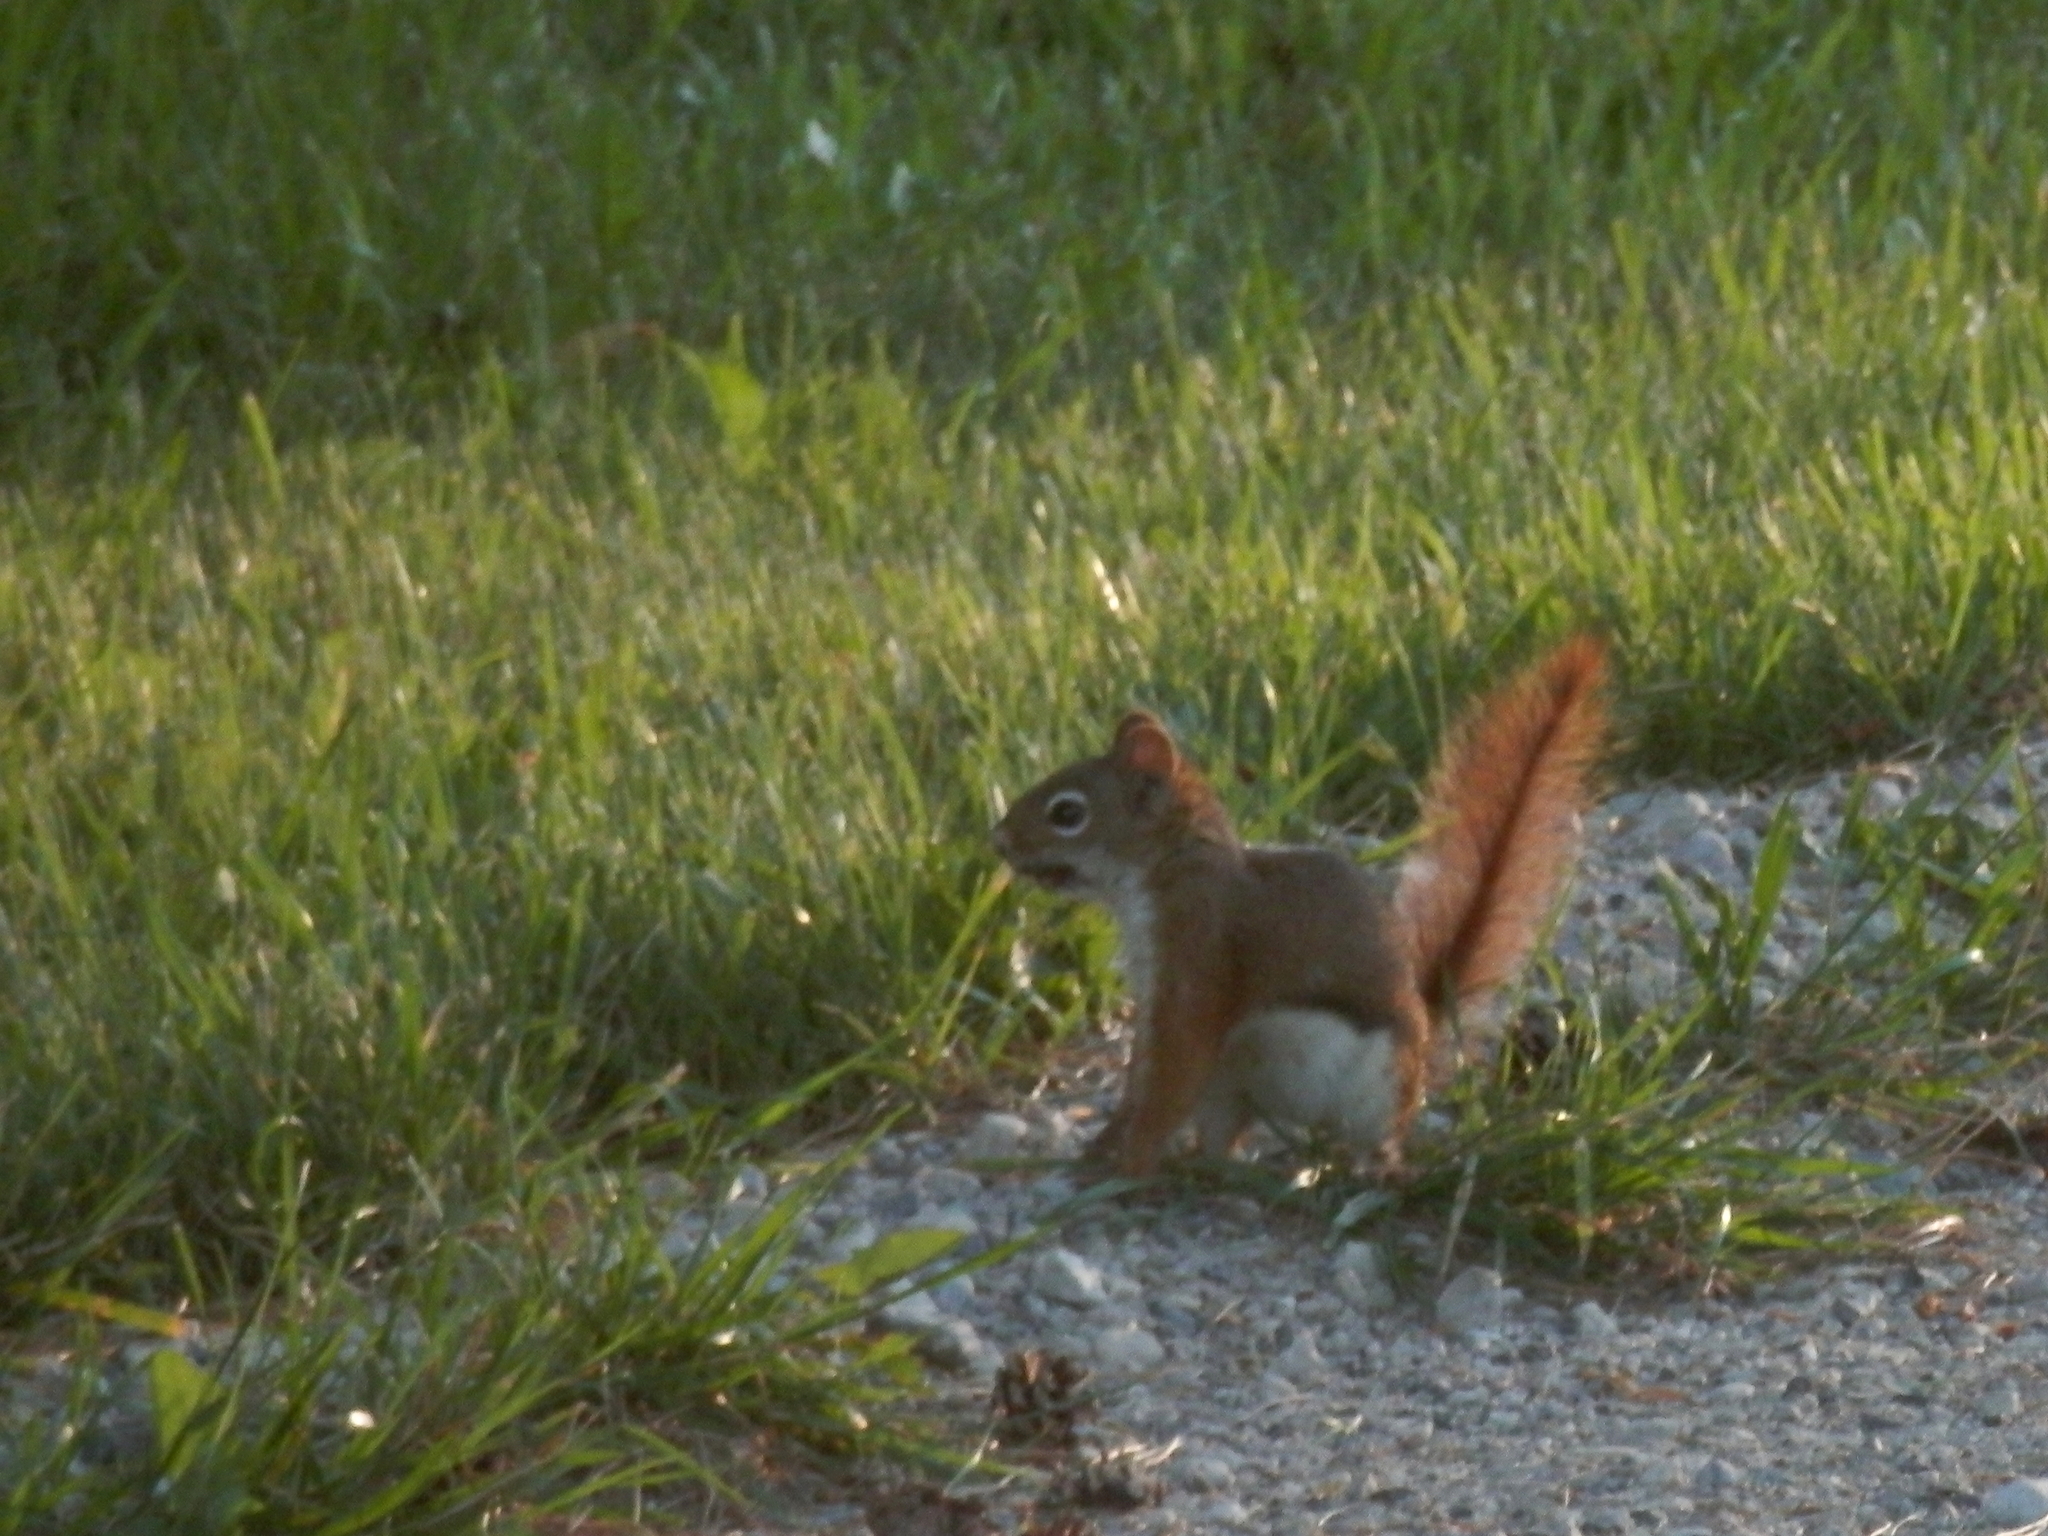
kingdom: Animalia
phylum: Chordata
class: Mammalia
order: Rodentia
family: Sciuridae
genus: Tamiasciurus
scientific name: Tamiasciurus hudsonicus
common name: Red squirrel
